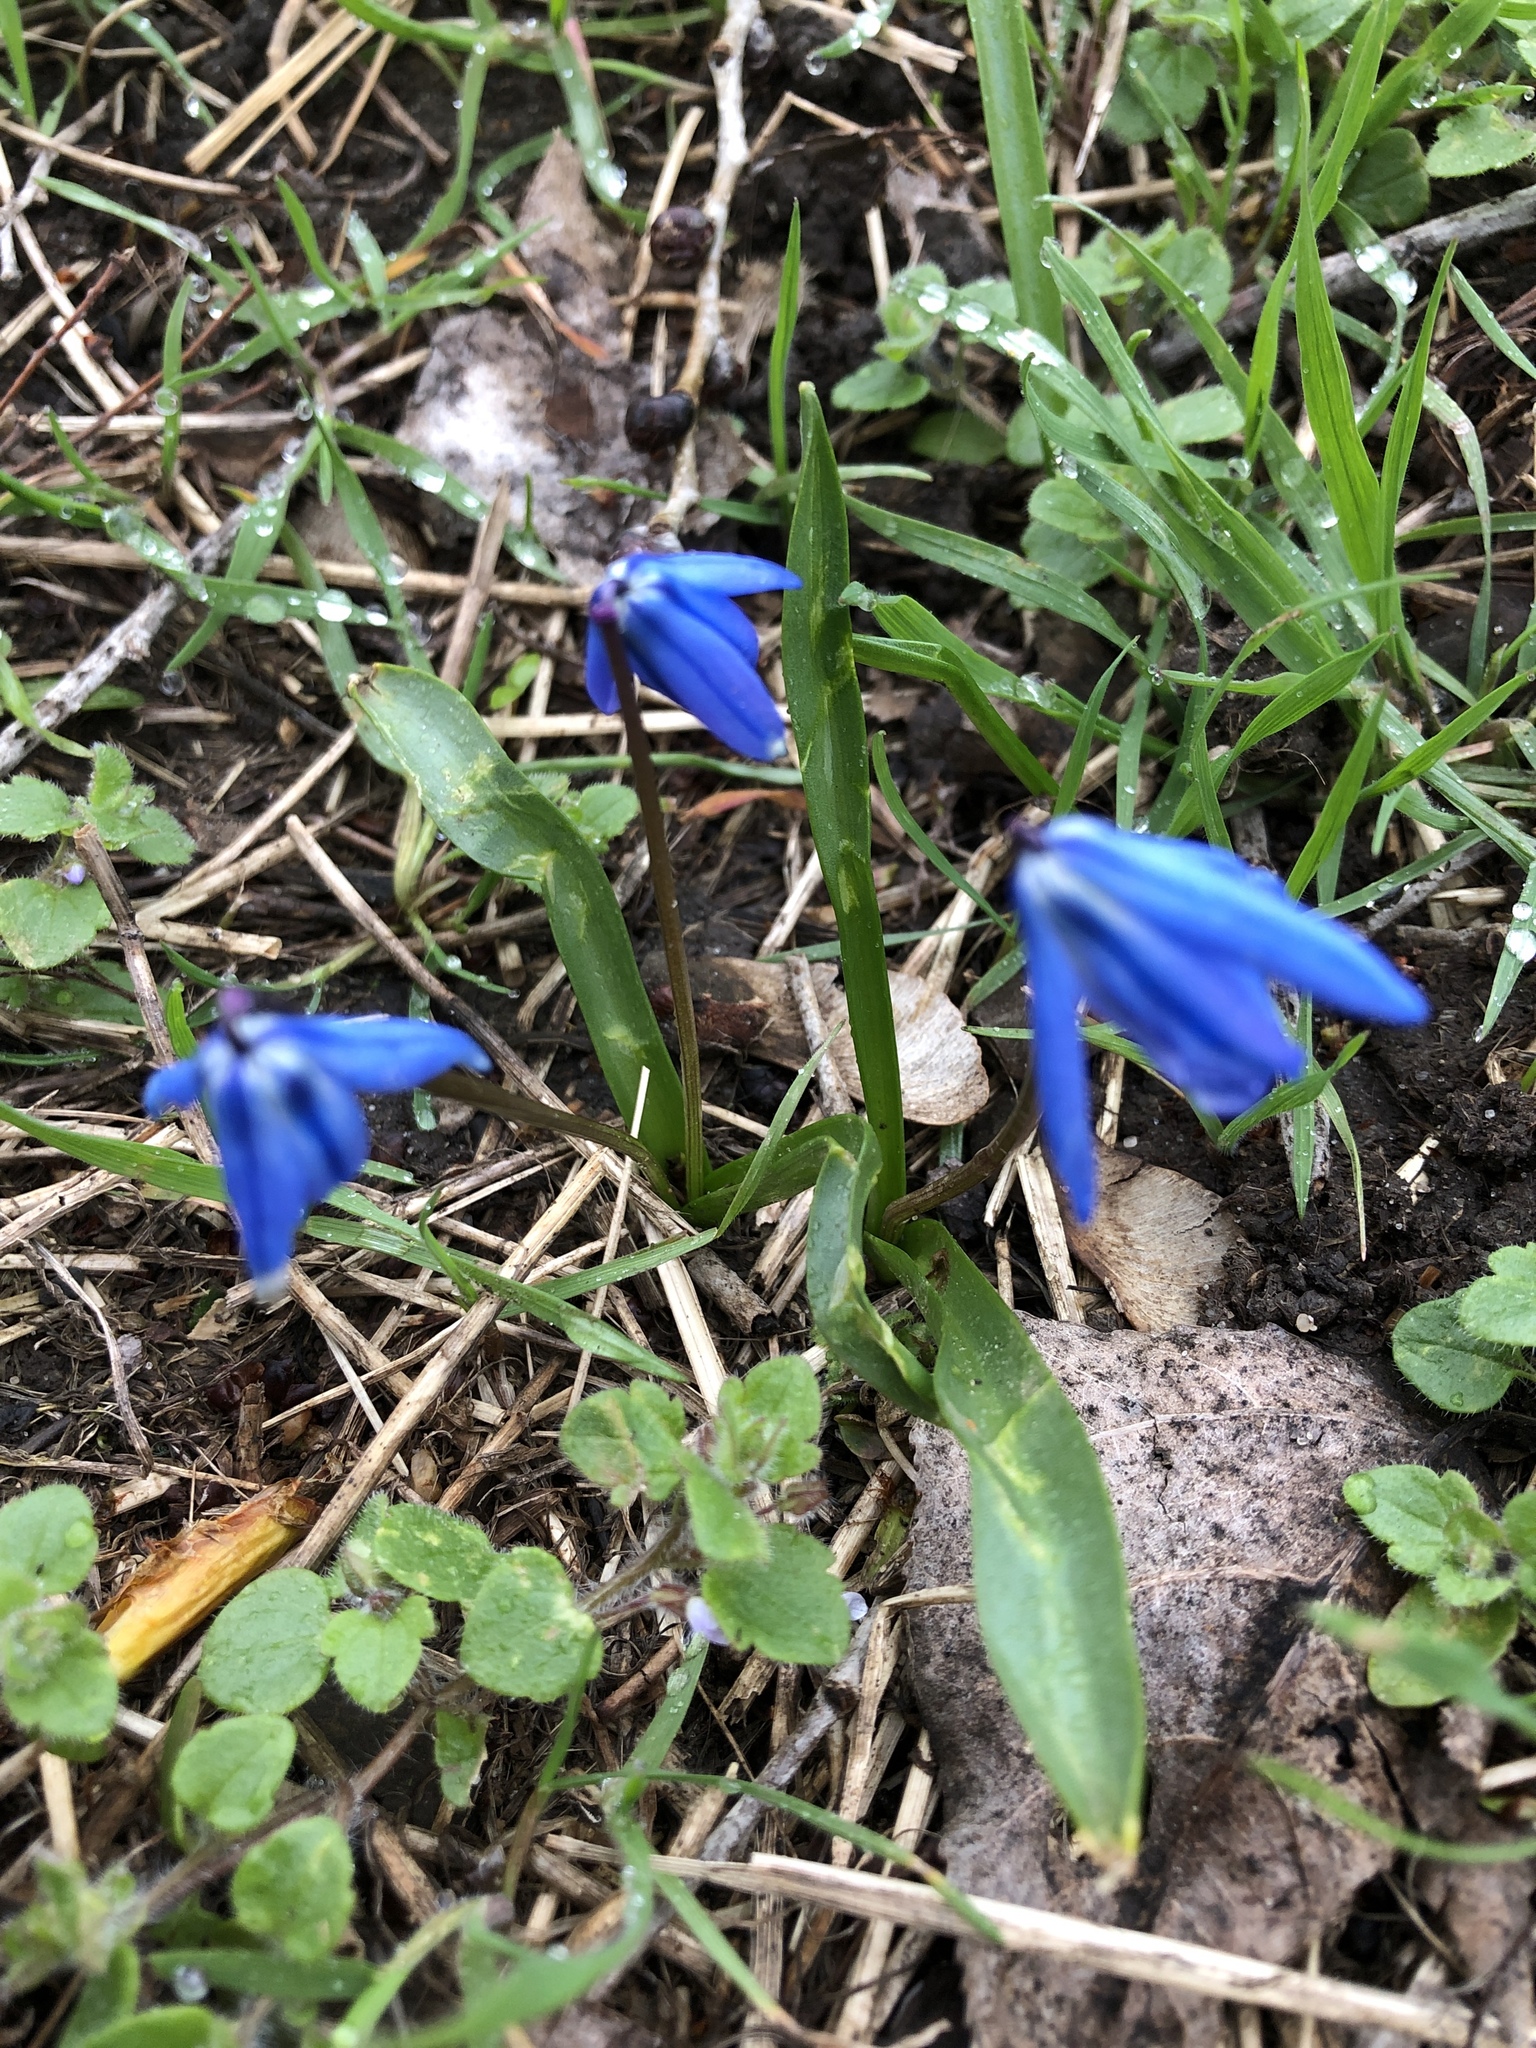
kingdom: Plantae
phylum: Tracheophyta
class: Liliopsida
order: Asparagales
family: Asparagaceae
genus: Scilla
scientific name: Scilla siberica
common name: Siberian squill
